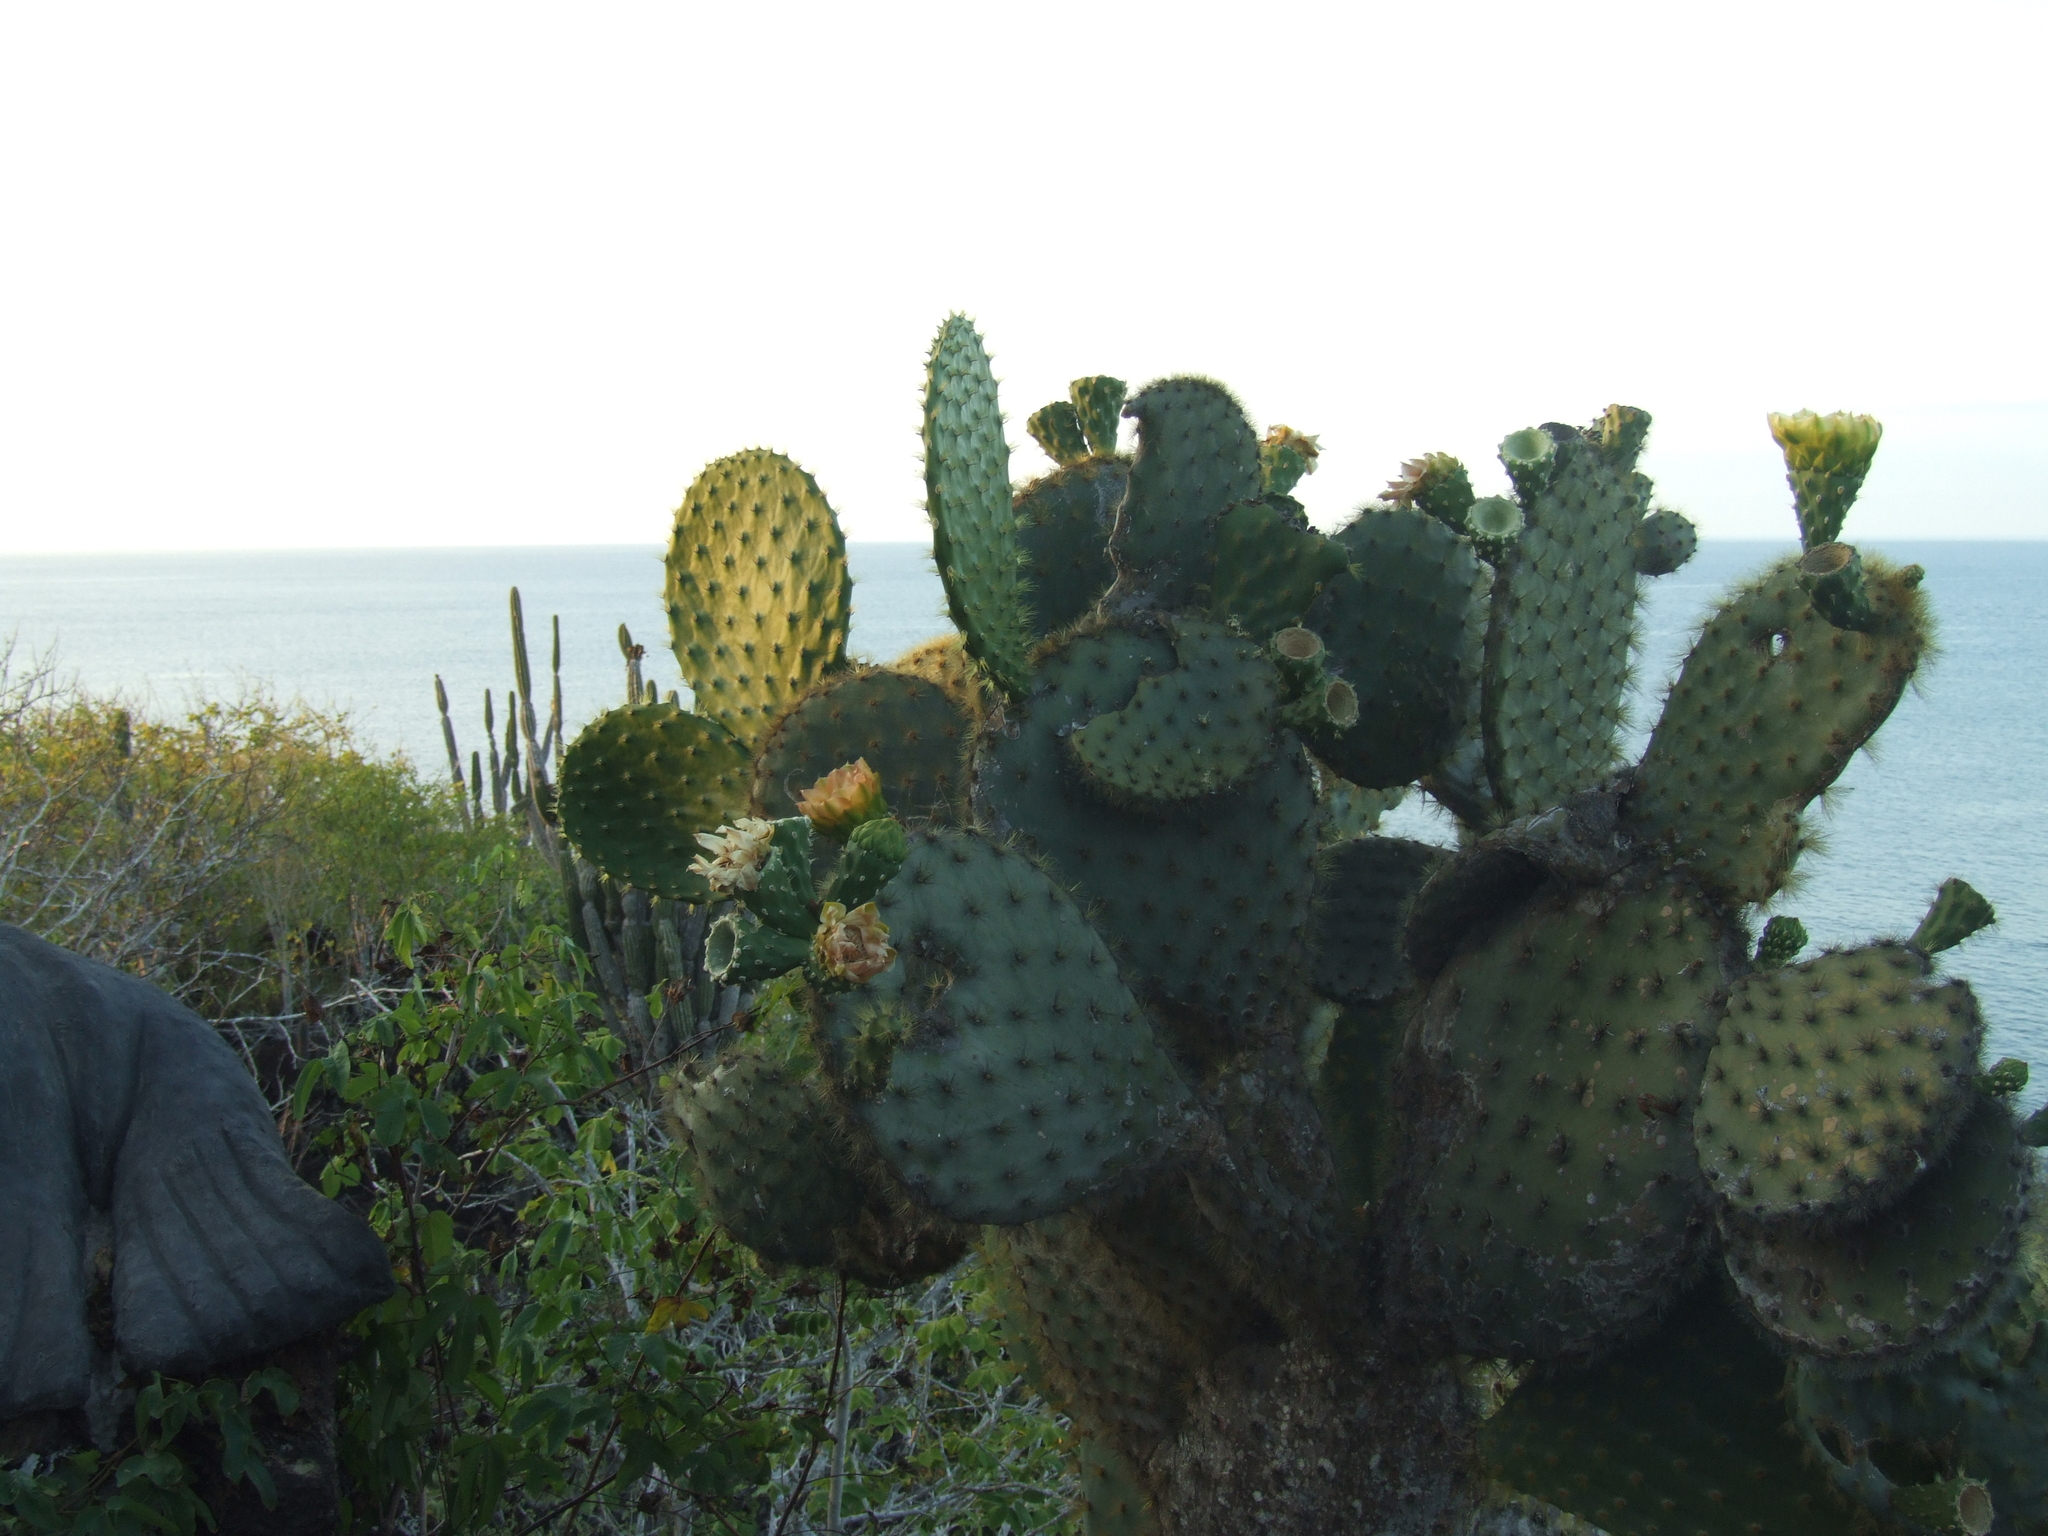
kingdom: Plantae
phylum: Tracheophyta
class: Magnoliopsida
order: Caryophyllales
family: Cactaceae
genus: Opuntia
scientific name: Opuntia galapageia
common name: Galápagos prickly pear
